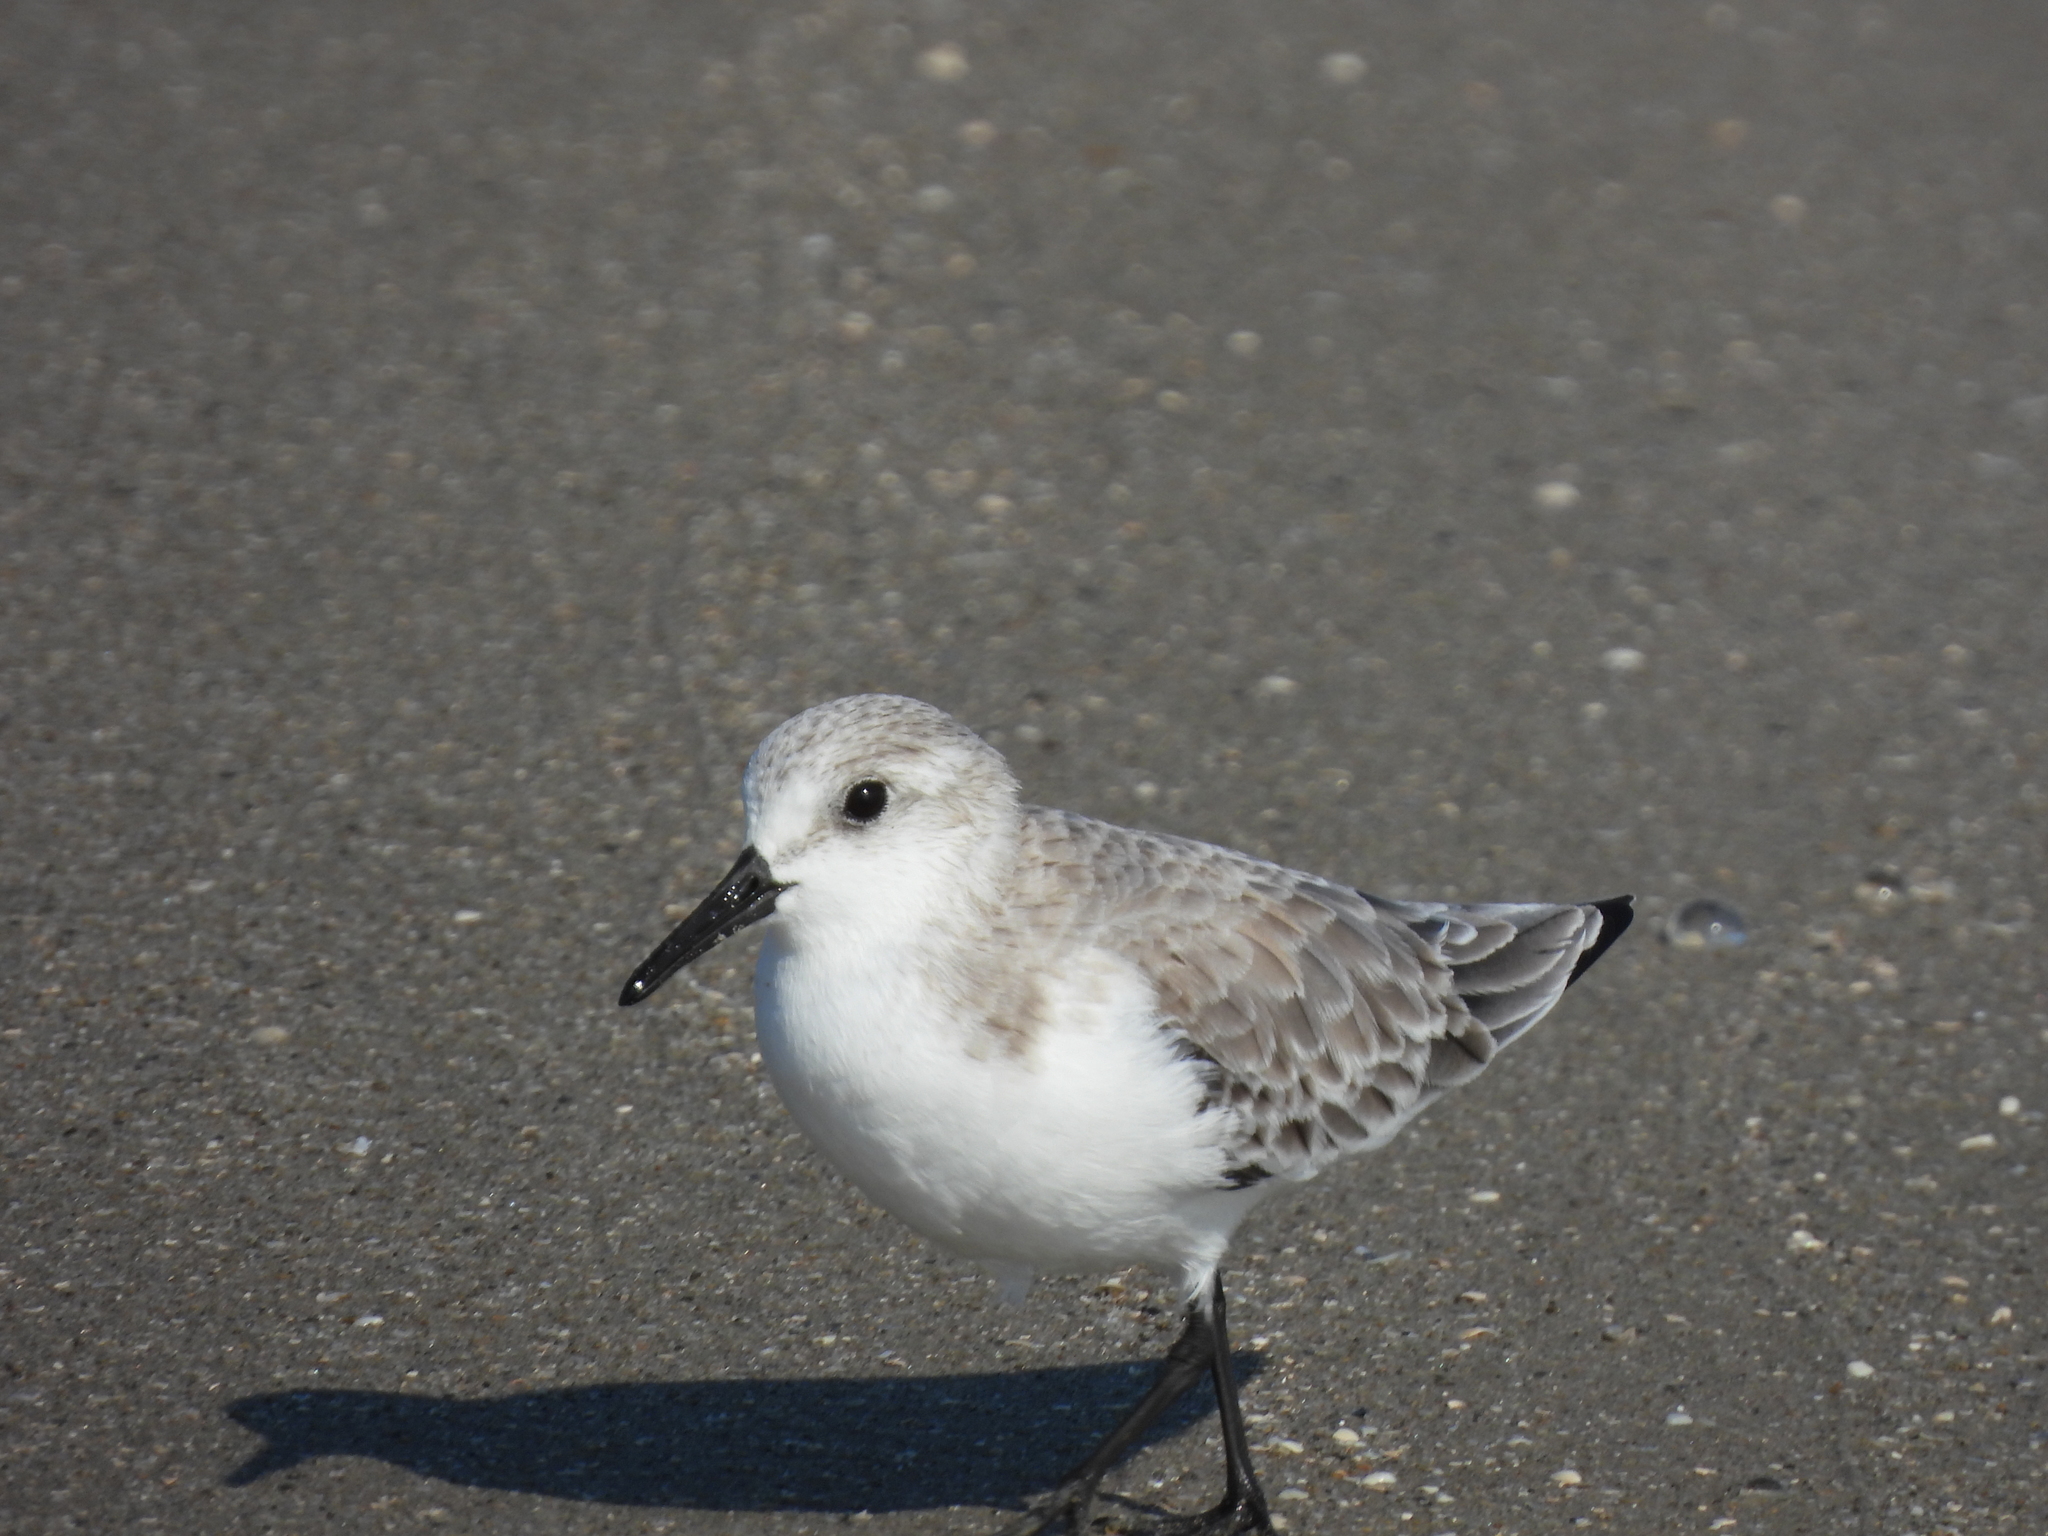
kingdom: Animalia
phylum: Chordata
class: Aves
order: Charadriiformes
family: Scolopacidae
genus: Calidris
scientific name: Calidris alba
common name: Sanderling
